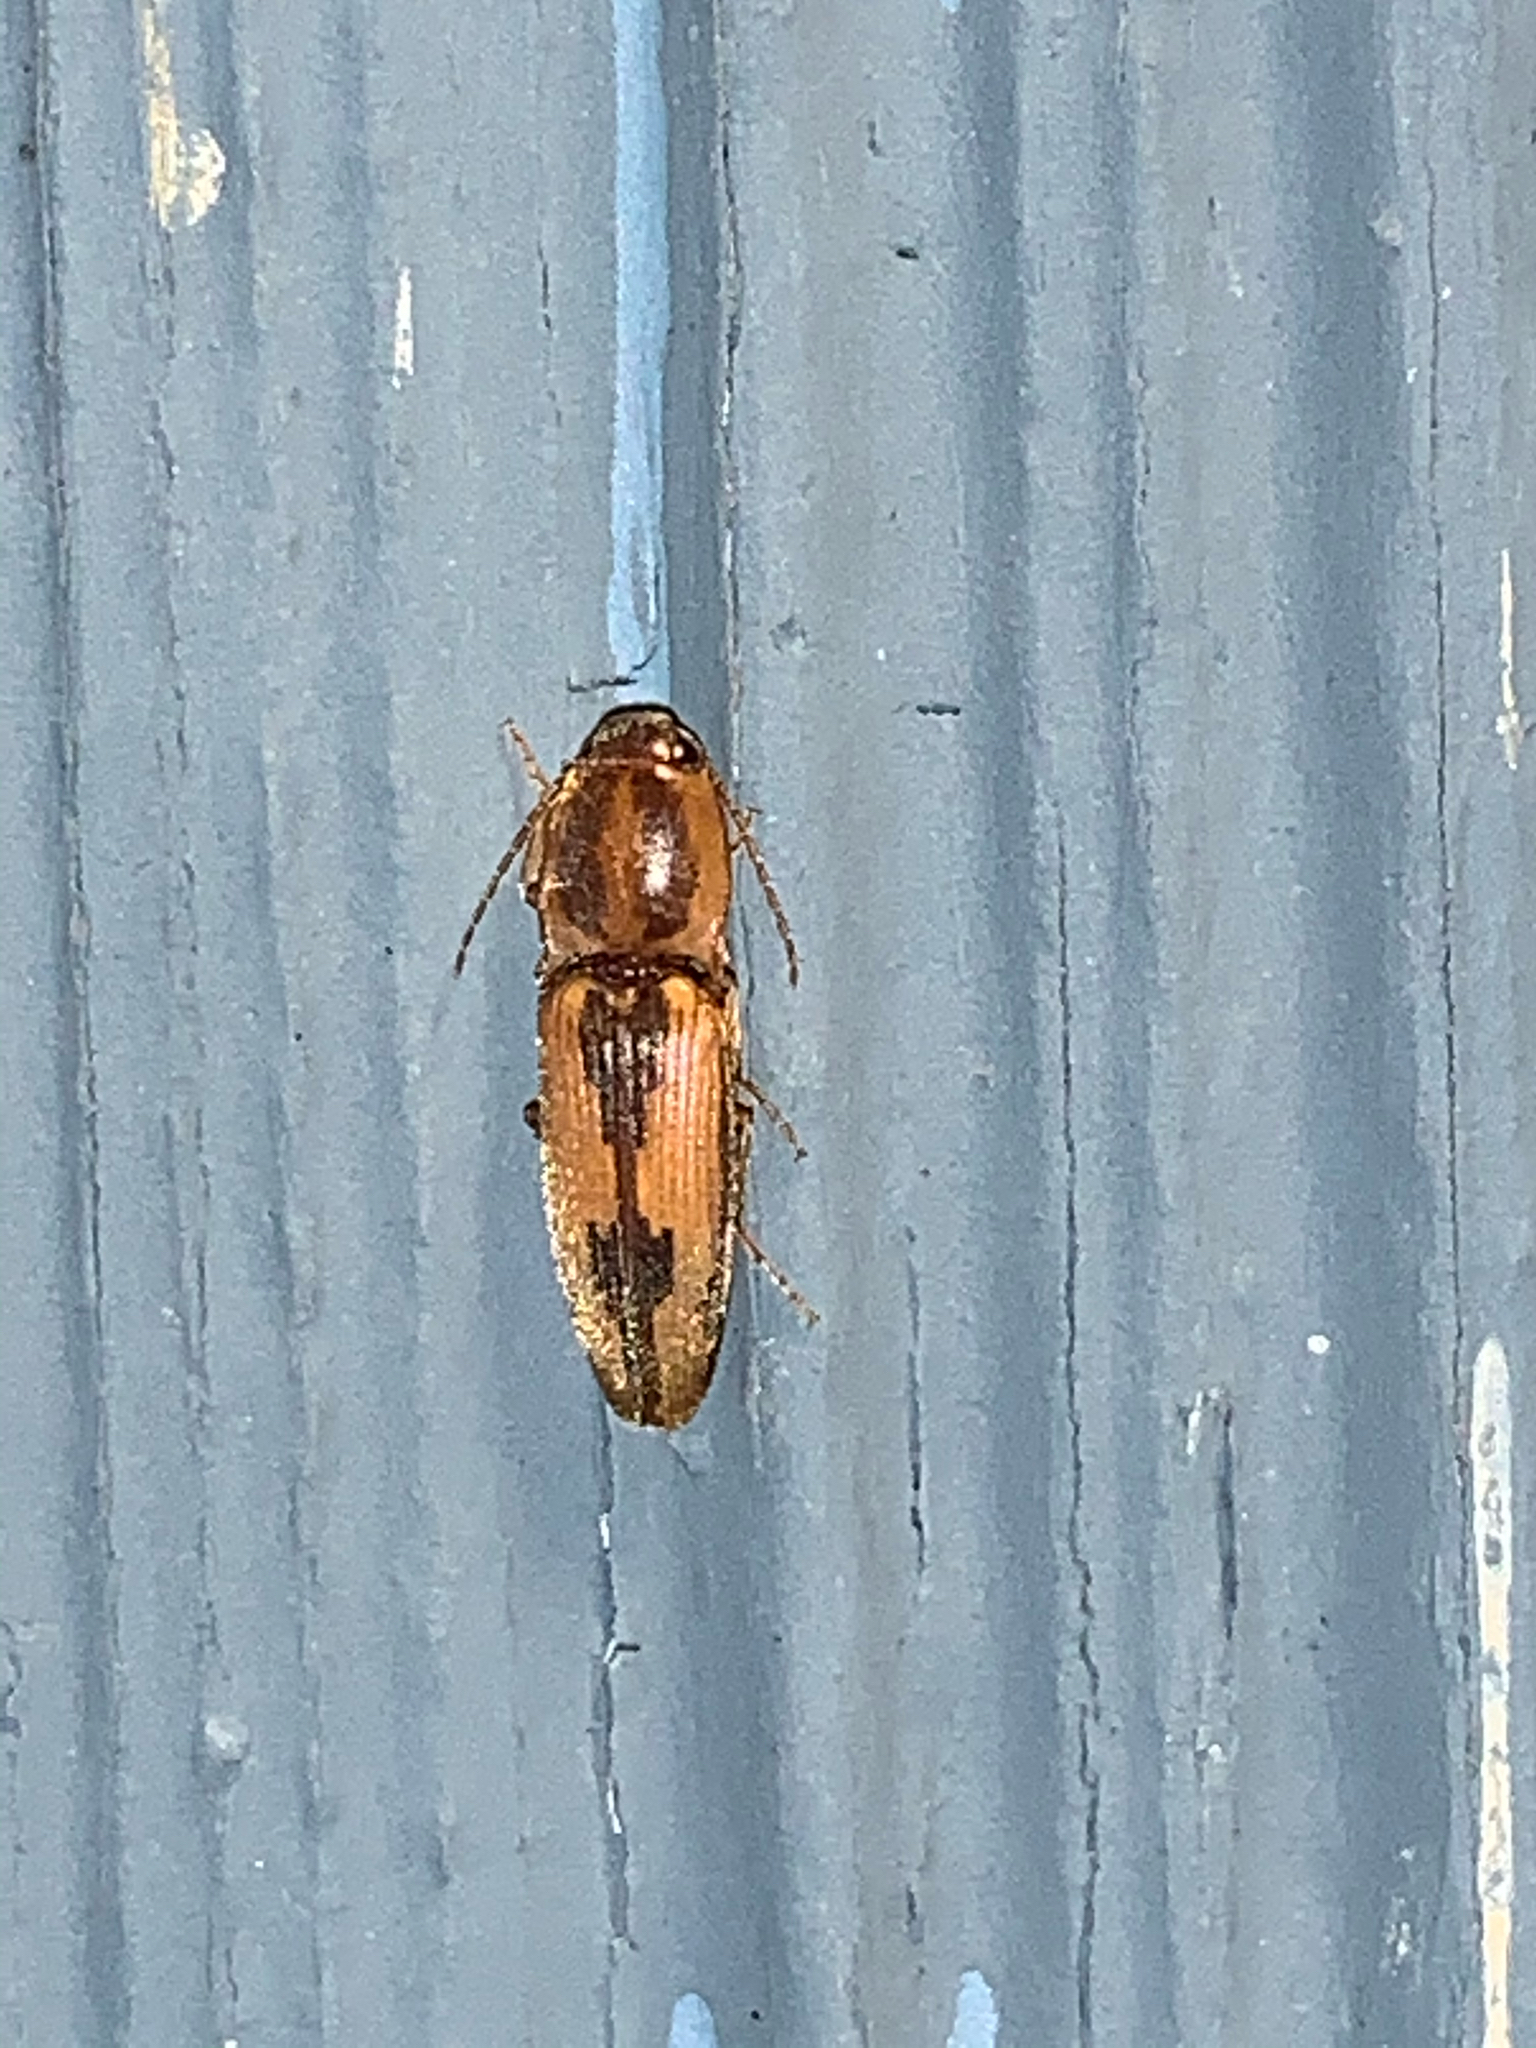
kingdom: Animalia
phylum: Arthropoda
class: Insecta
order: Coleoptera
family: Elateridae
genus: Monocrepidius
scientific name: Monocrepidius
